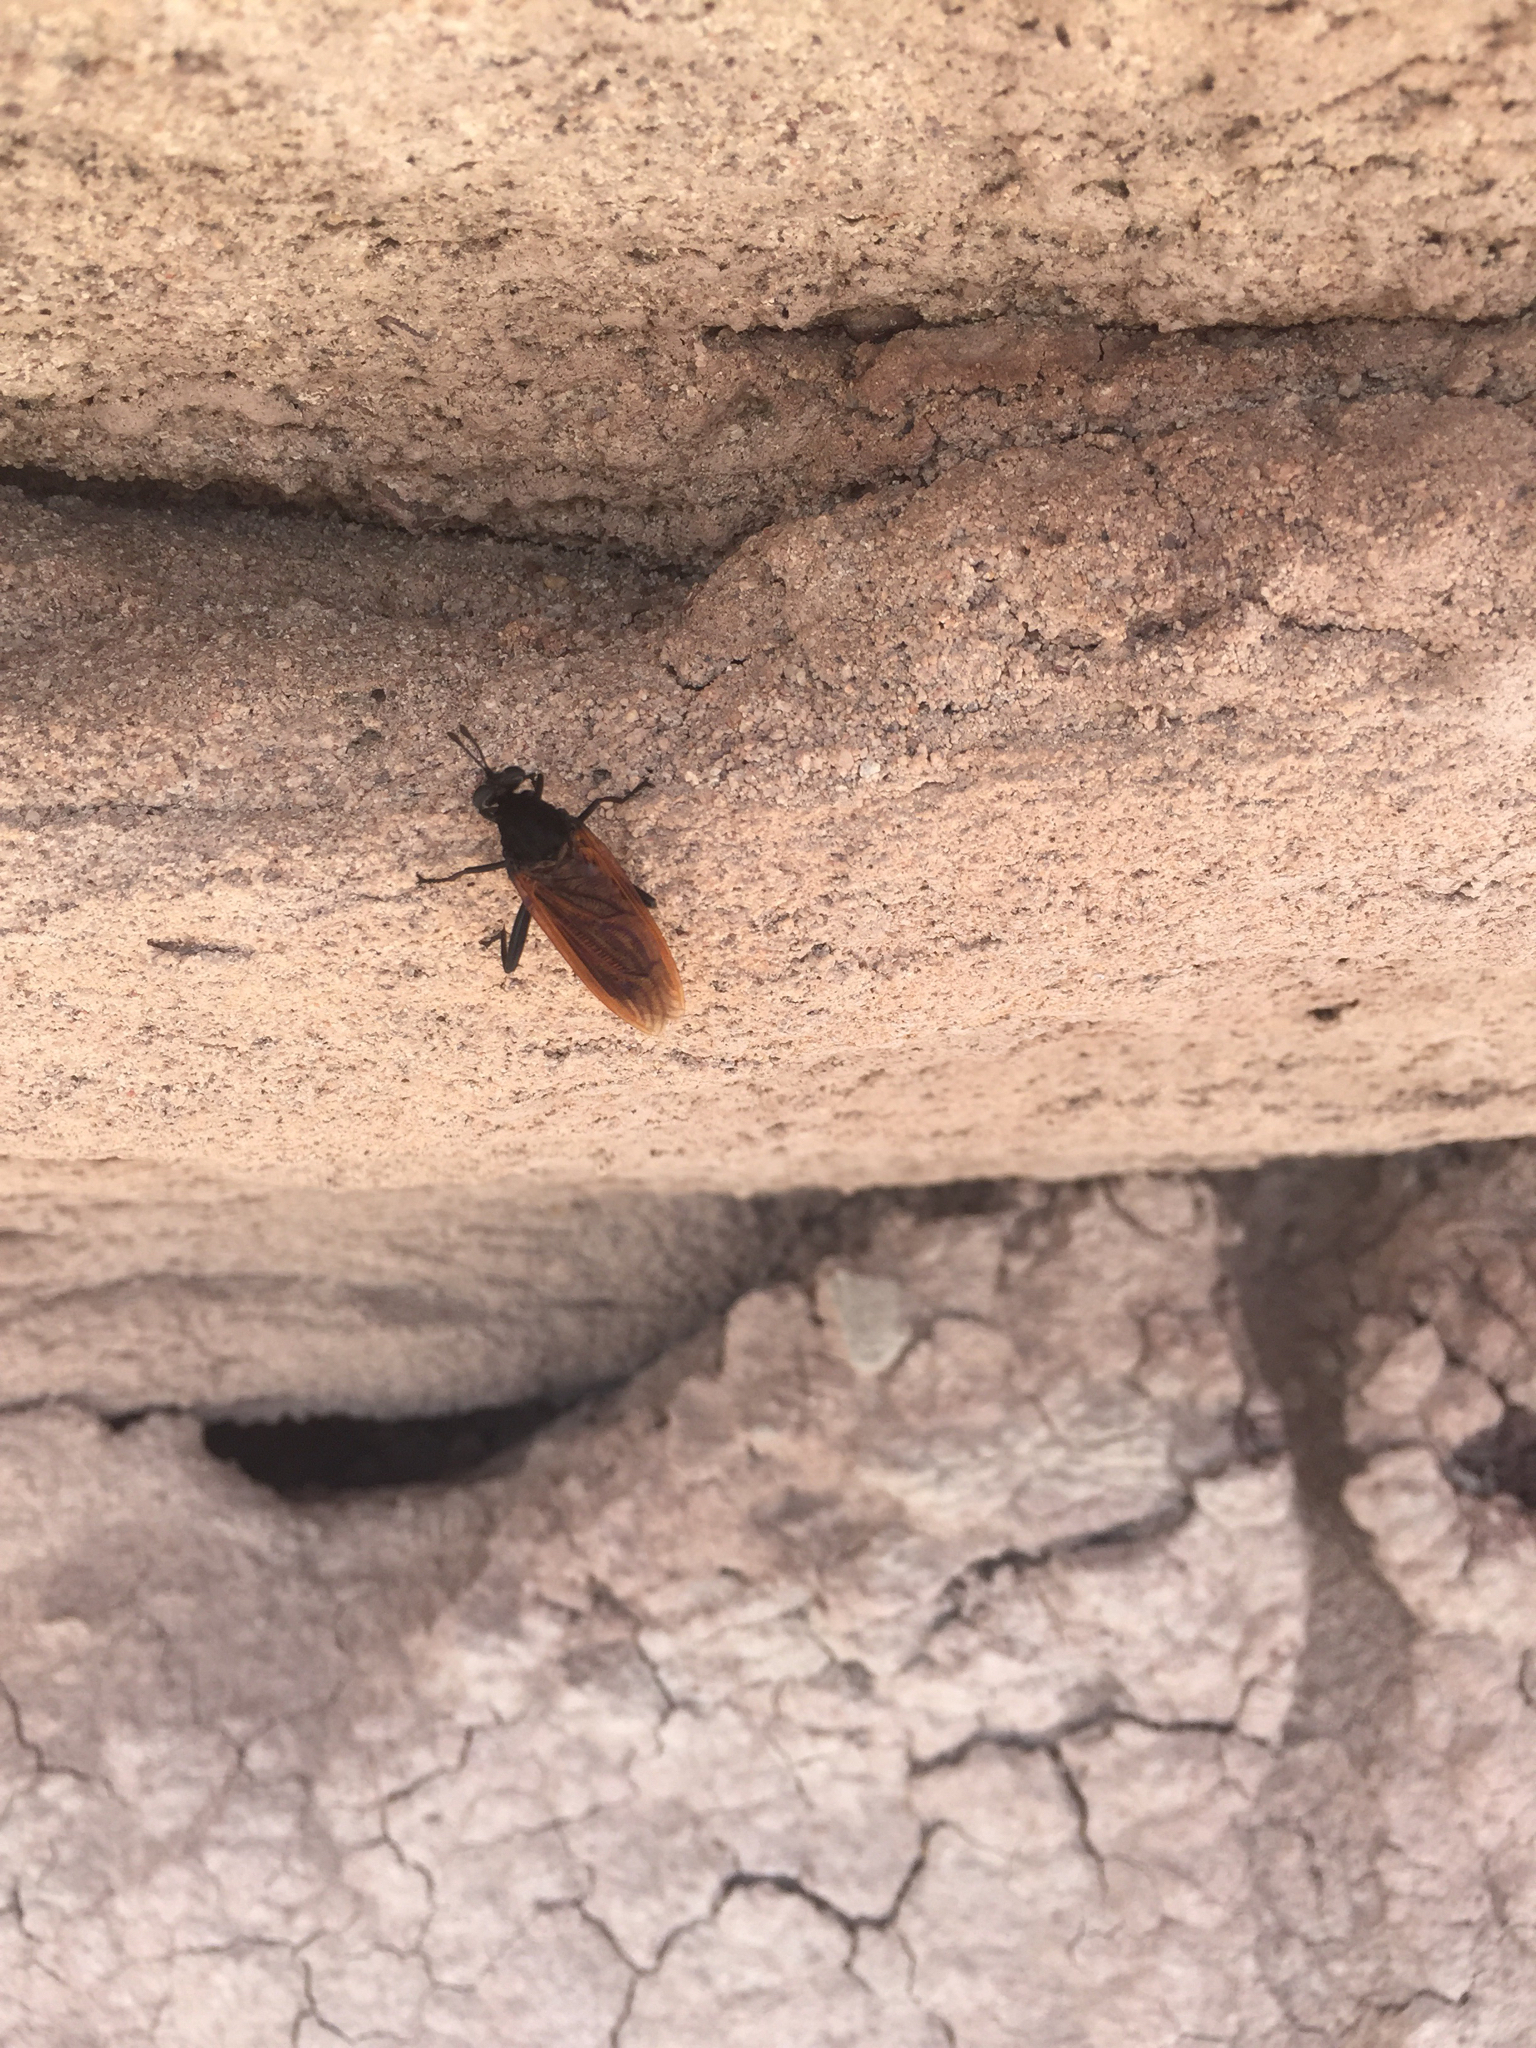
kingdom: Animalia
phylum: Arthropoda
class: Insecta
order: Diptera
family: Mydidae
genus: Mydas
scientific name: Mydas luteipennis
